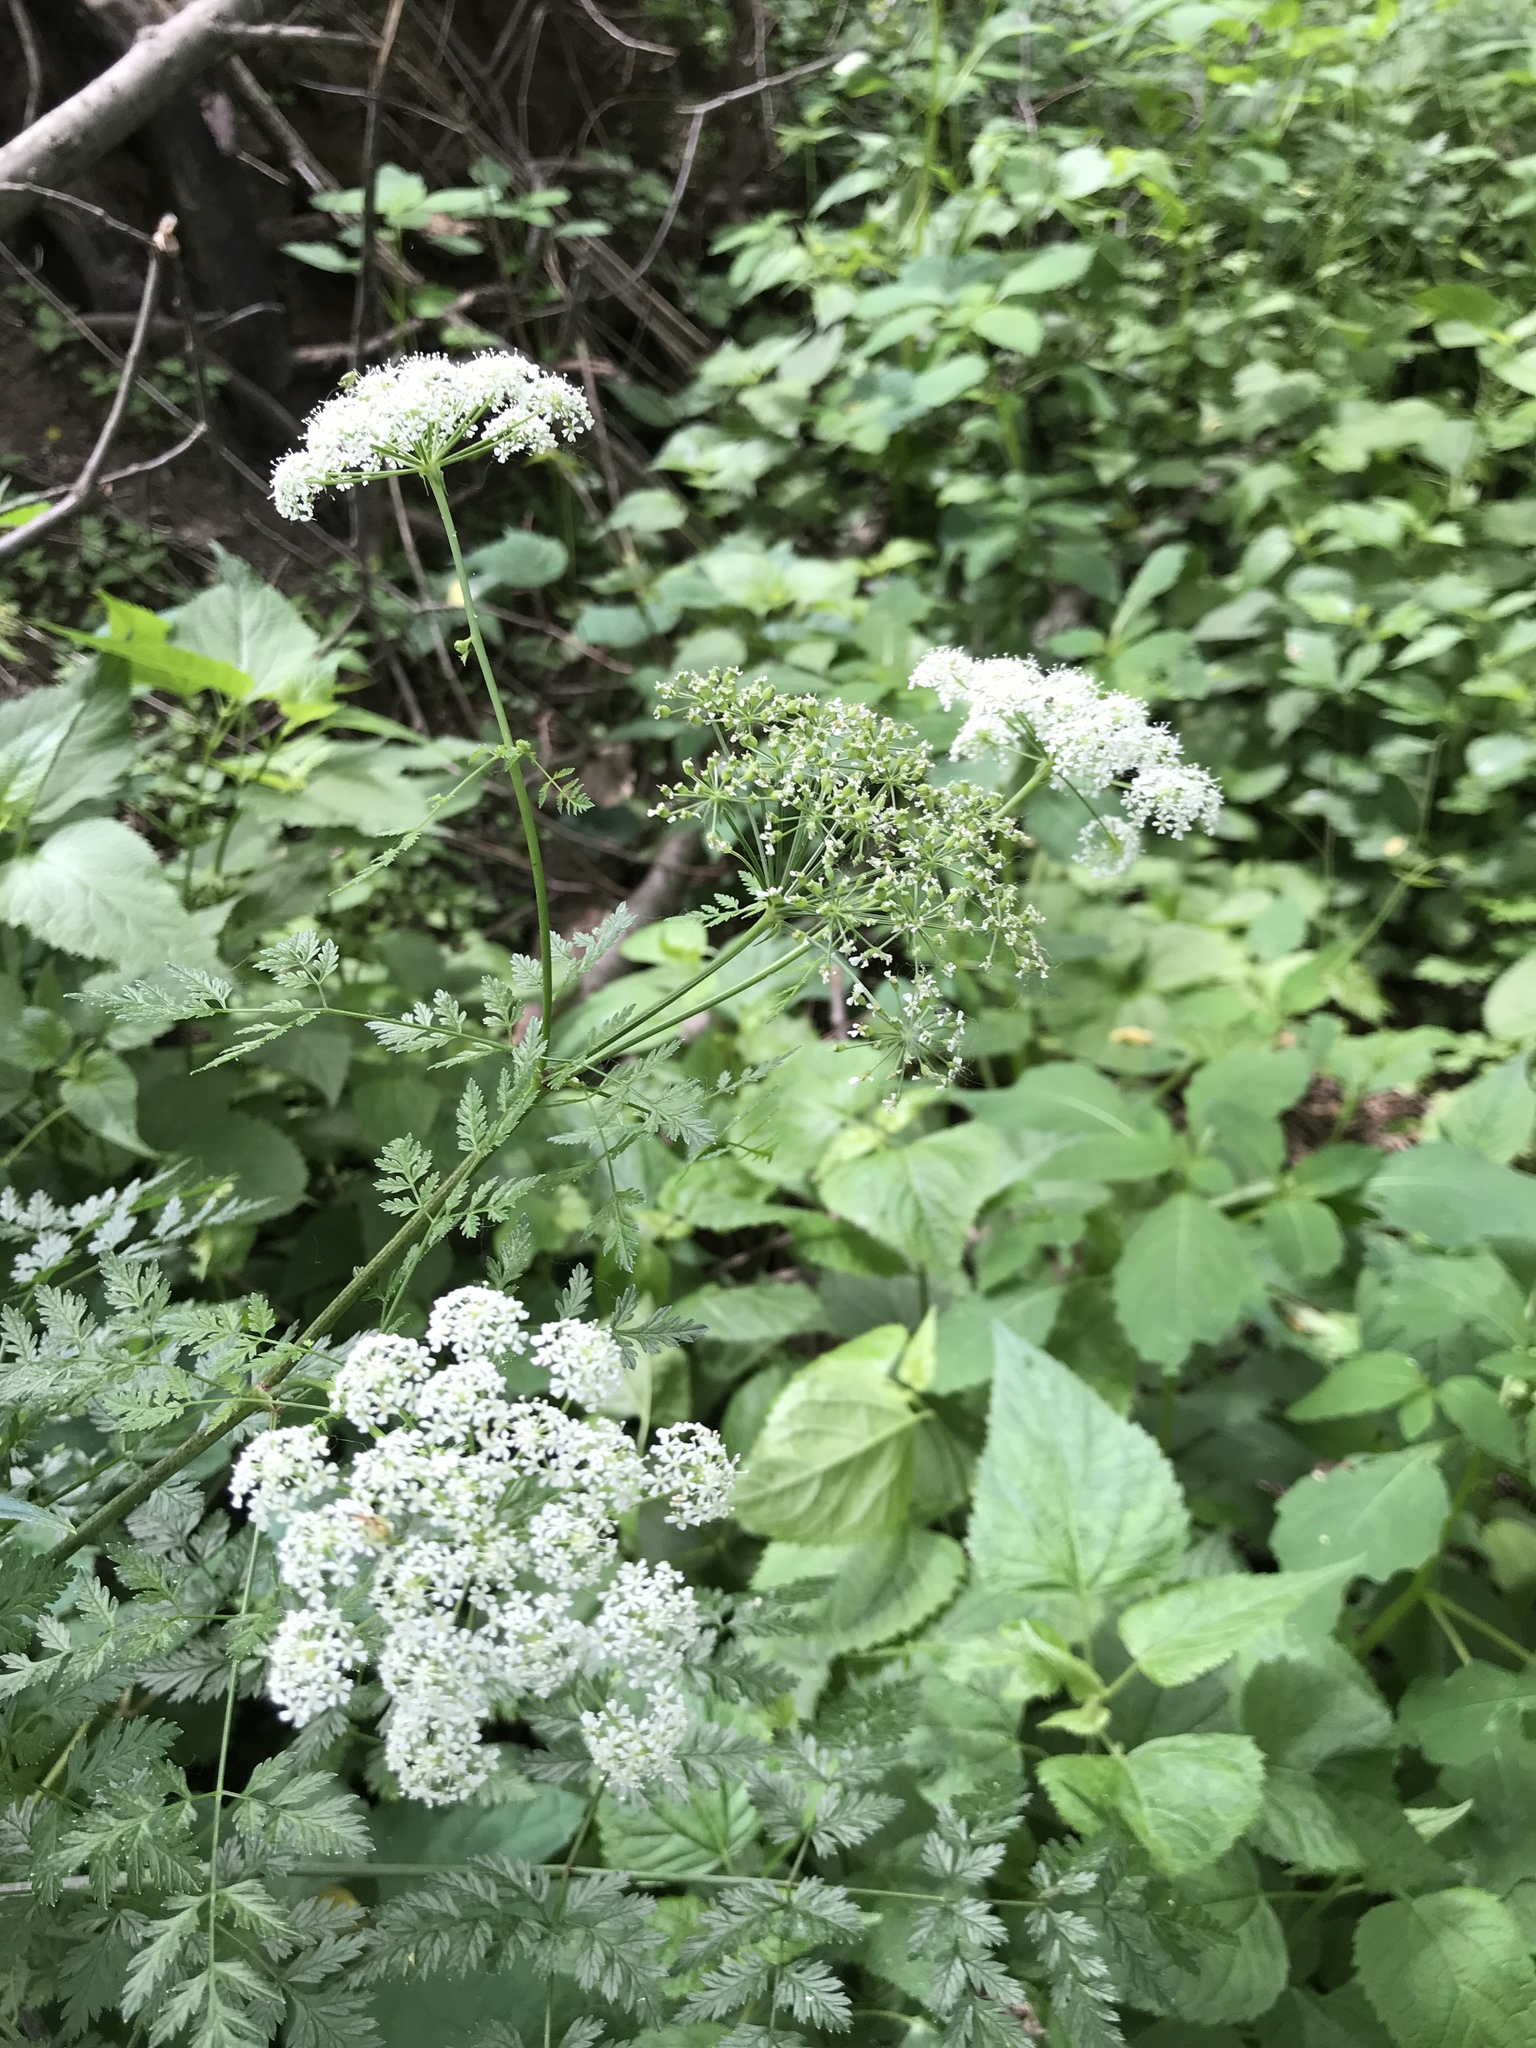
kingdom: Plantae
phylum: Tracheophyta
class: Magnoliopsida
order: Apiales
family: Apiaceae
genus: Conium
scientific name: Conium maculatum
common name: Hemlock
